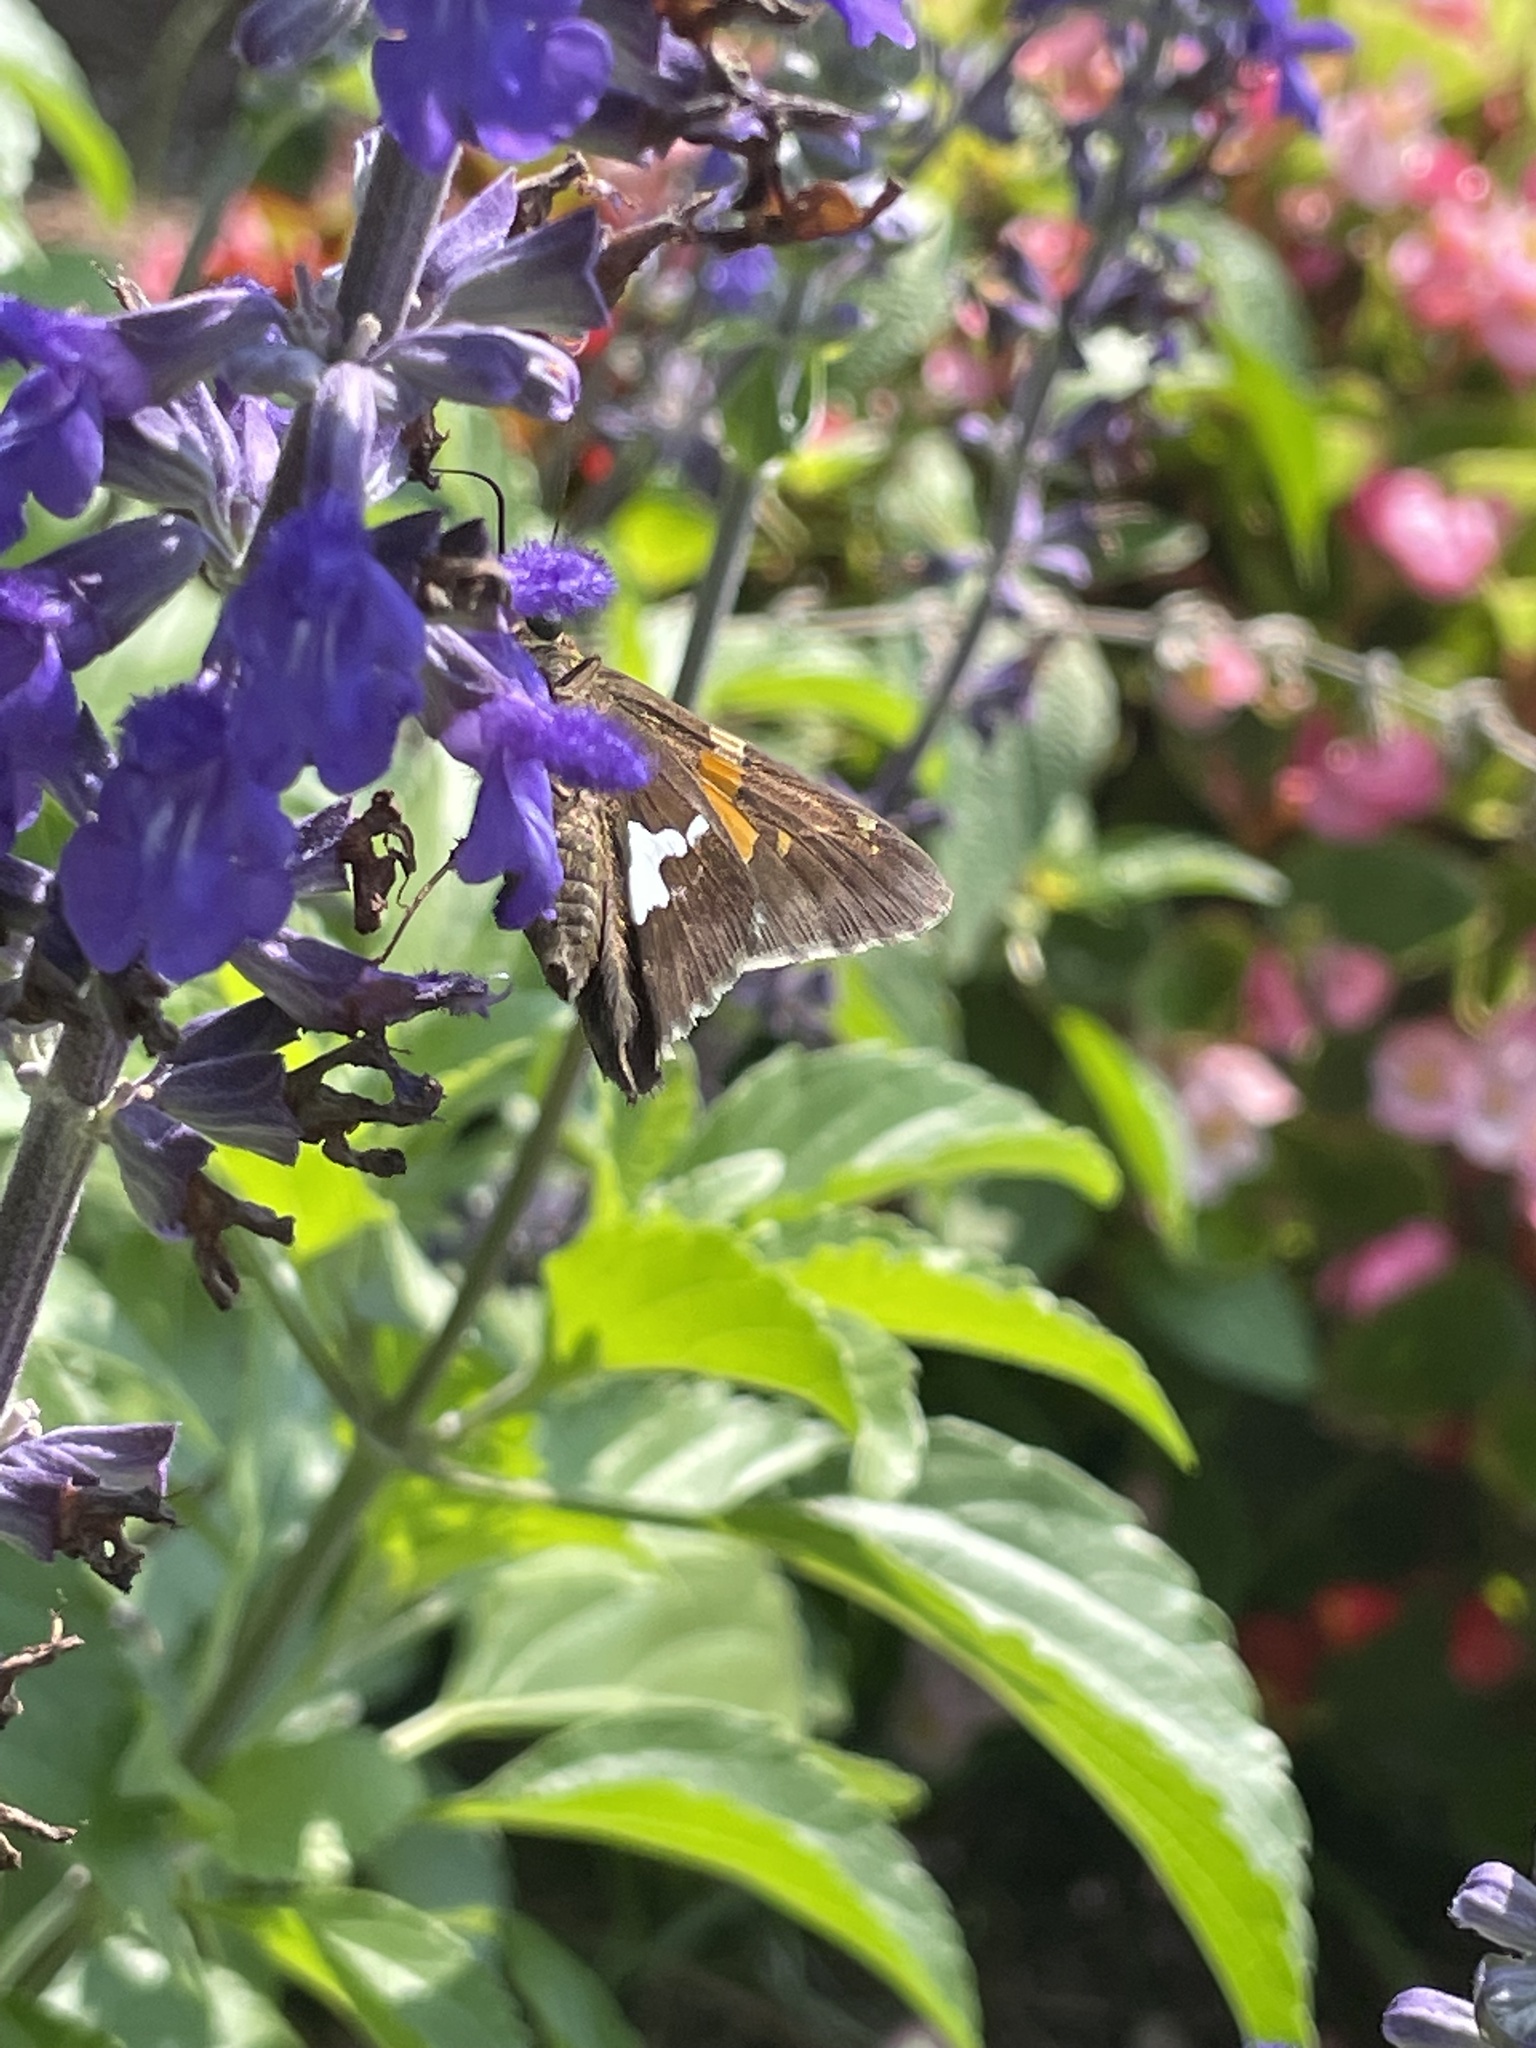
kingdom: Animalia
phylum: Arthropoda
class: Insecta
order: Lepidoptera
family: Hesperiidae
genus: Epargyreus
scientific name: Epargyreus clarus
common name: Silver-spotted skipper
